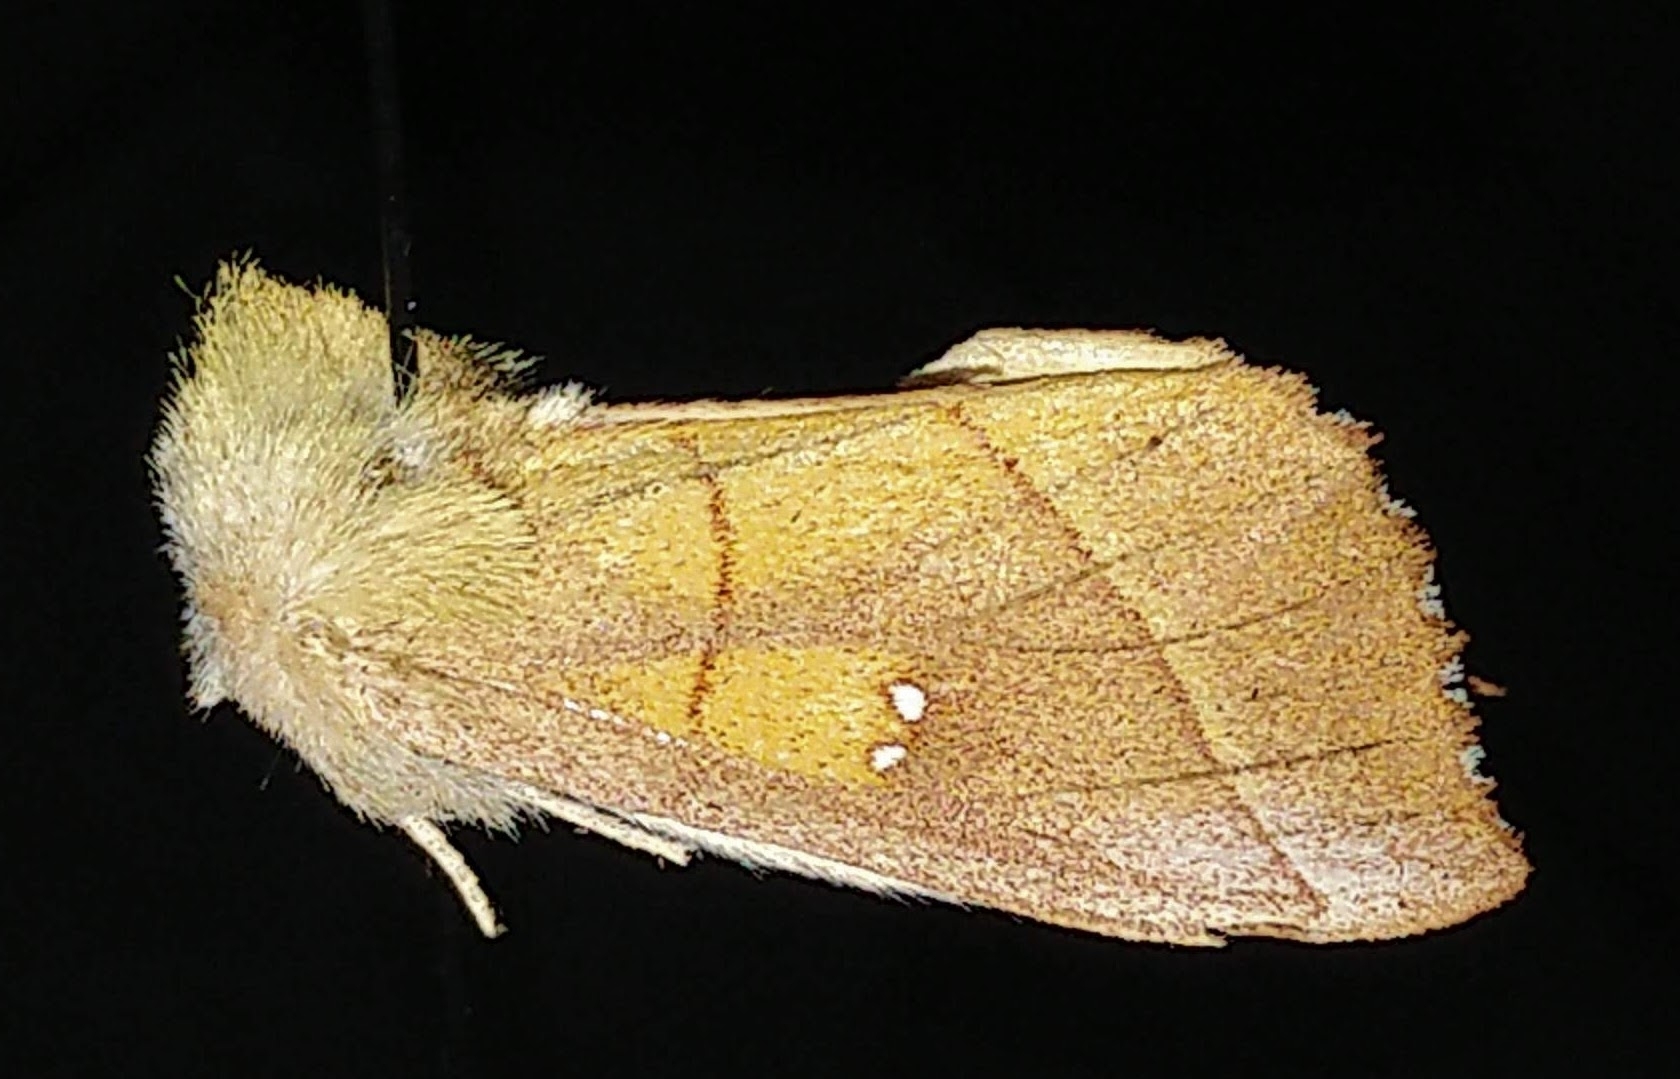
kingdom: Animalia
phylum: Arthropoda
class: Insecta
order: Lepidoptera
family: Notodontidae
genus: Nadata
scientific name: Nadata gibbosa
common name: White-dotted prominent
